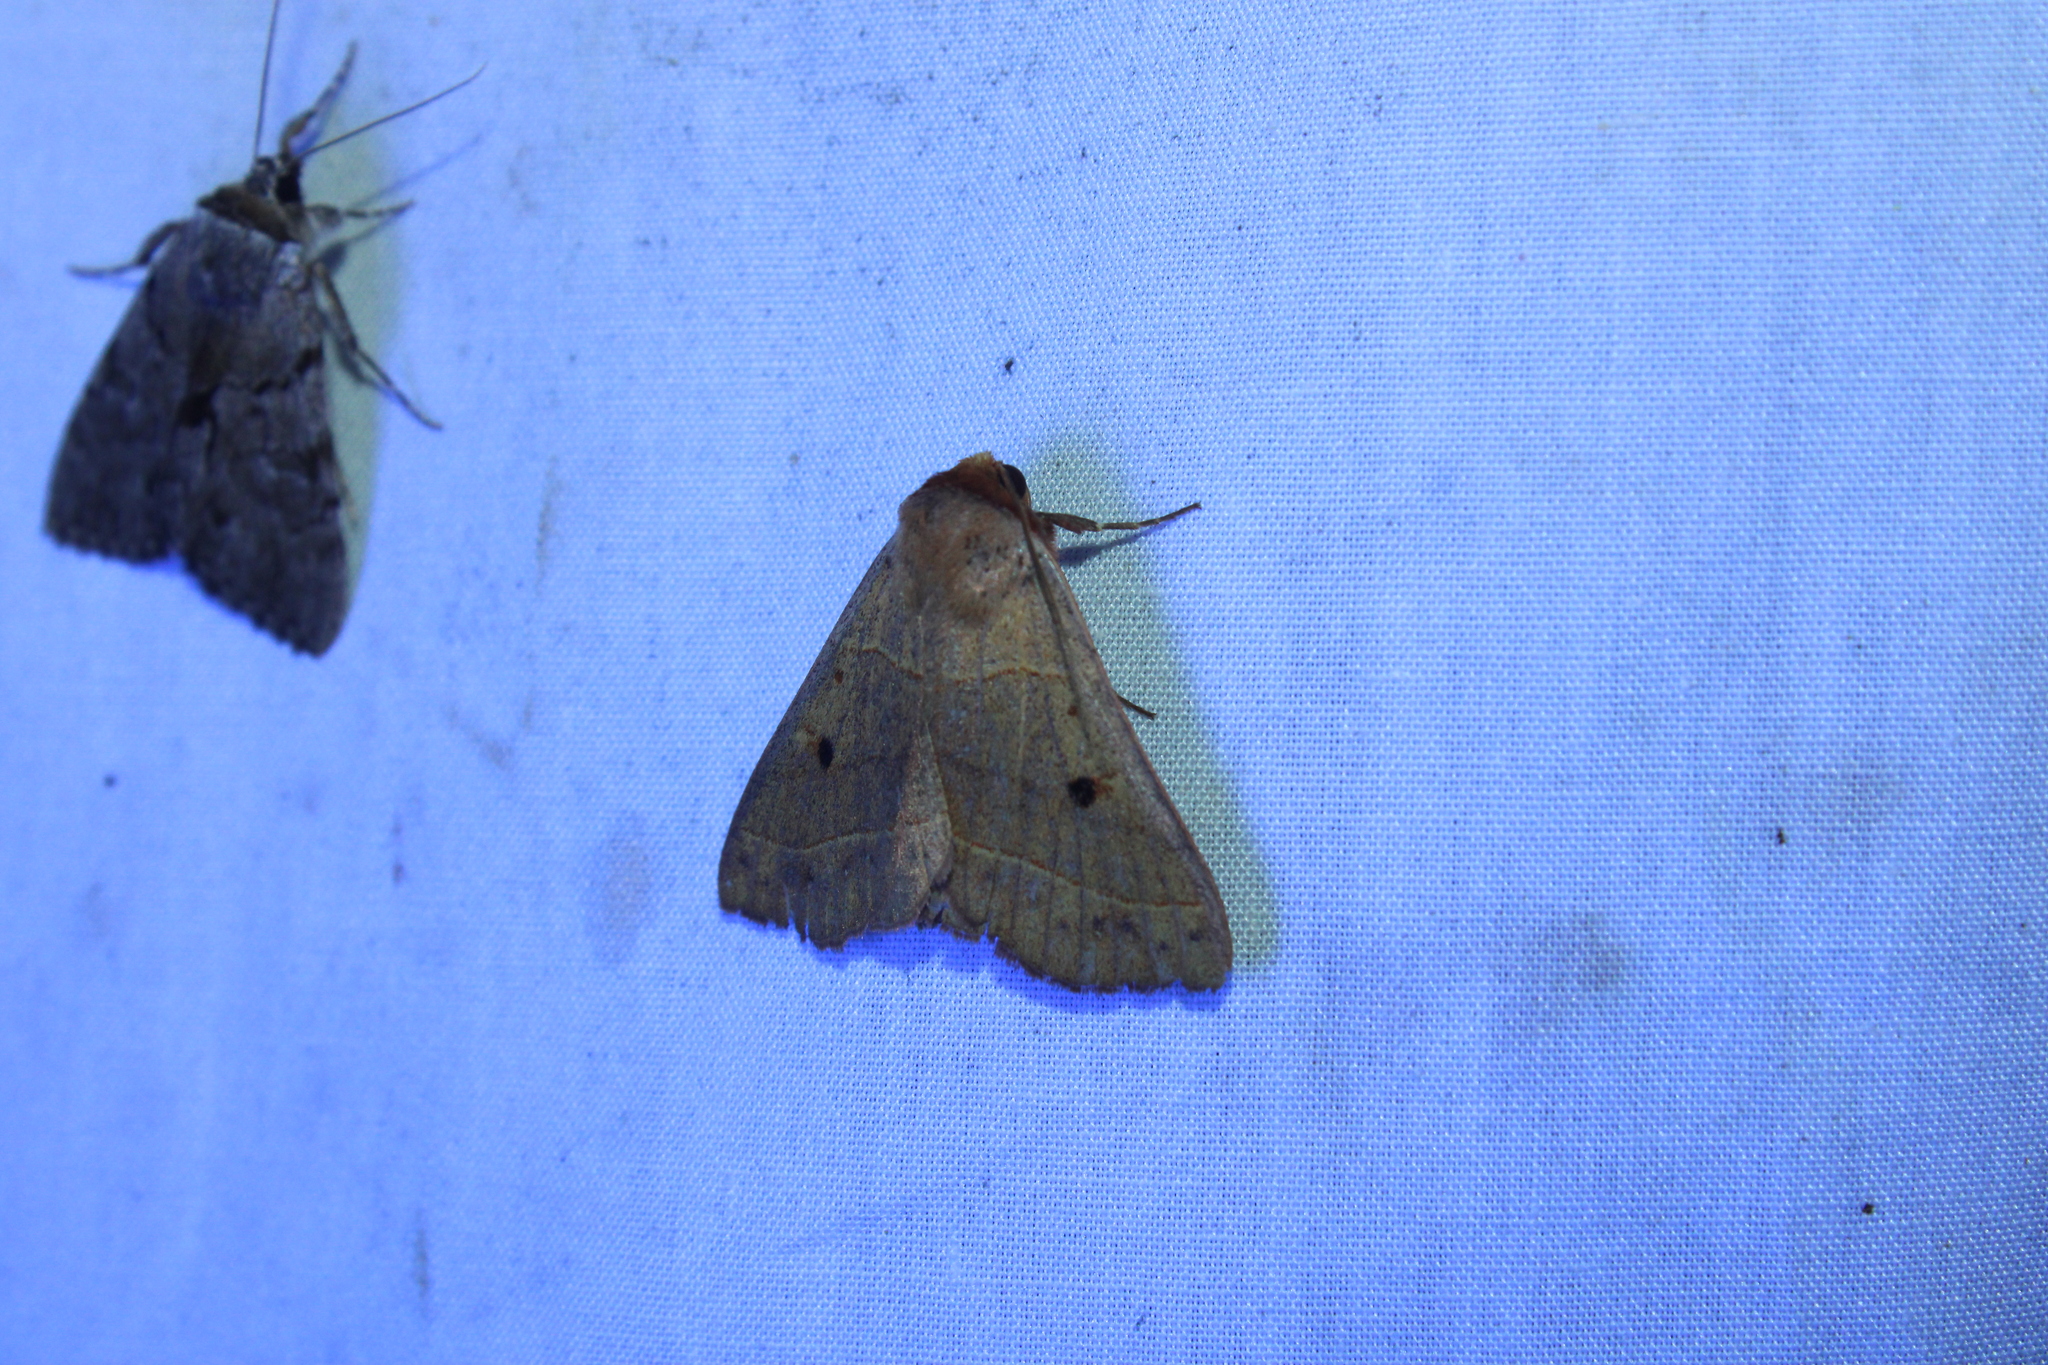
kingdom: Animalia
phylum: Arthropoda
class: Insecta
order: Lepidoptera
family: Erebidae
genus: Panopoda
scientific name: Panopoda rufimargo
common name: Red-lined panopoda moth
